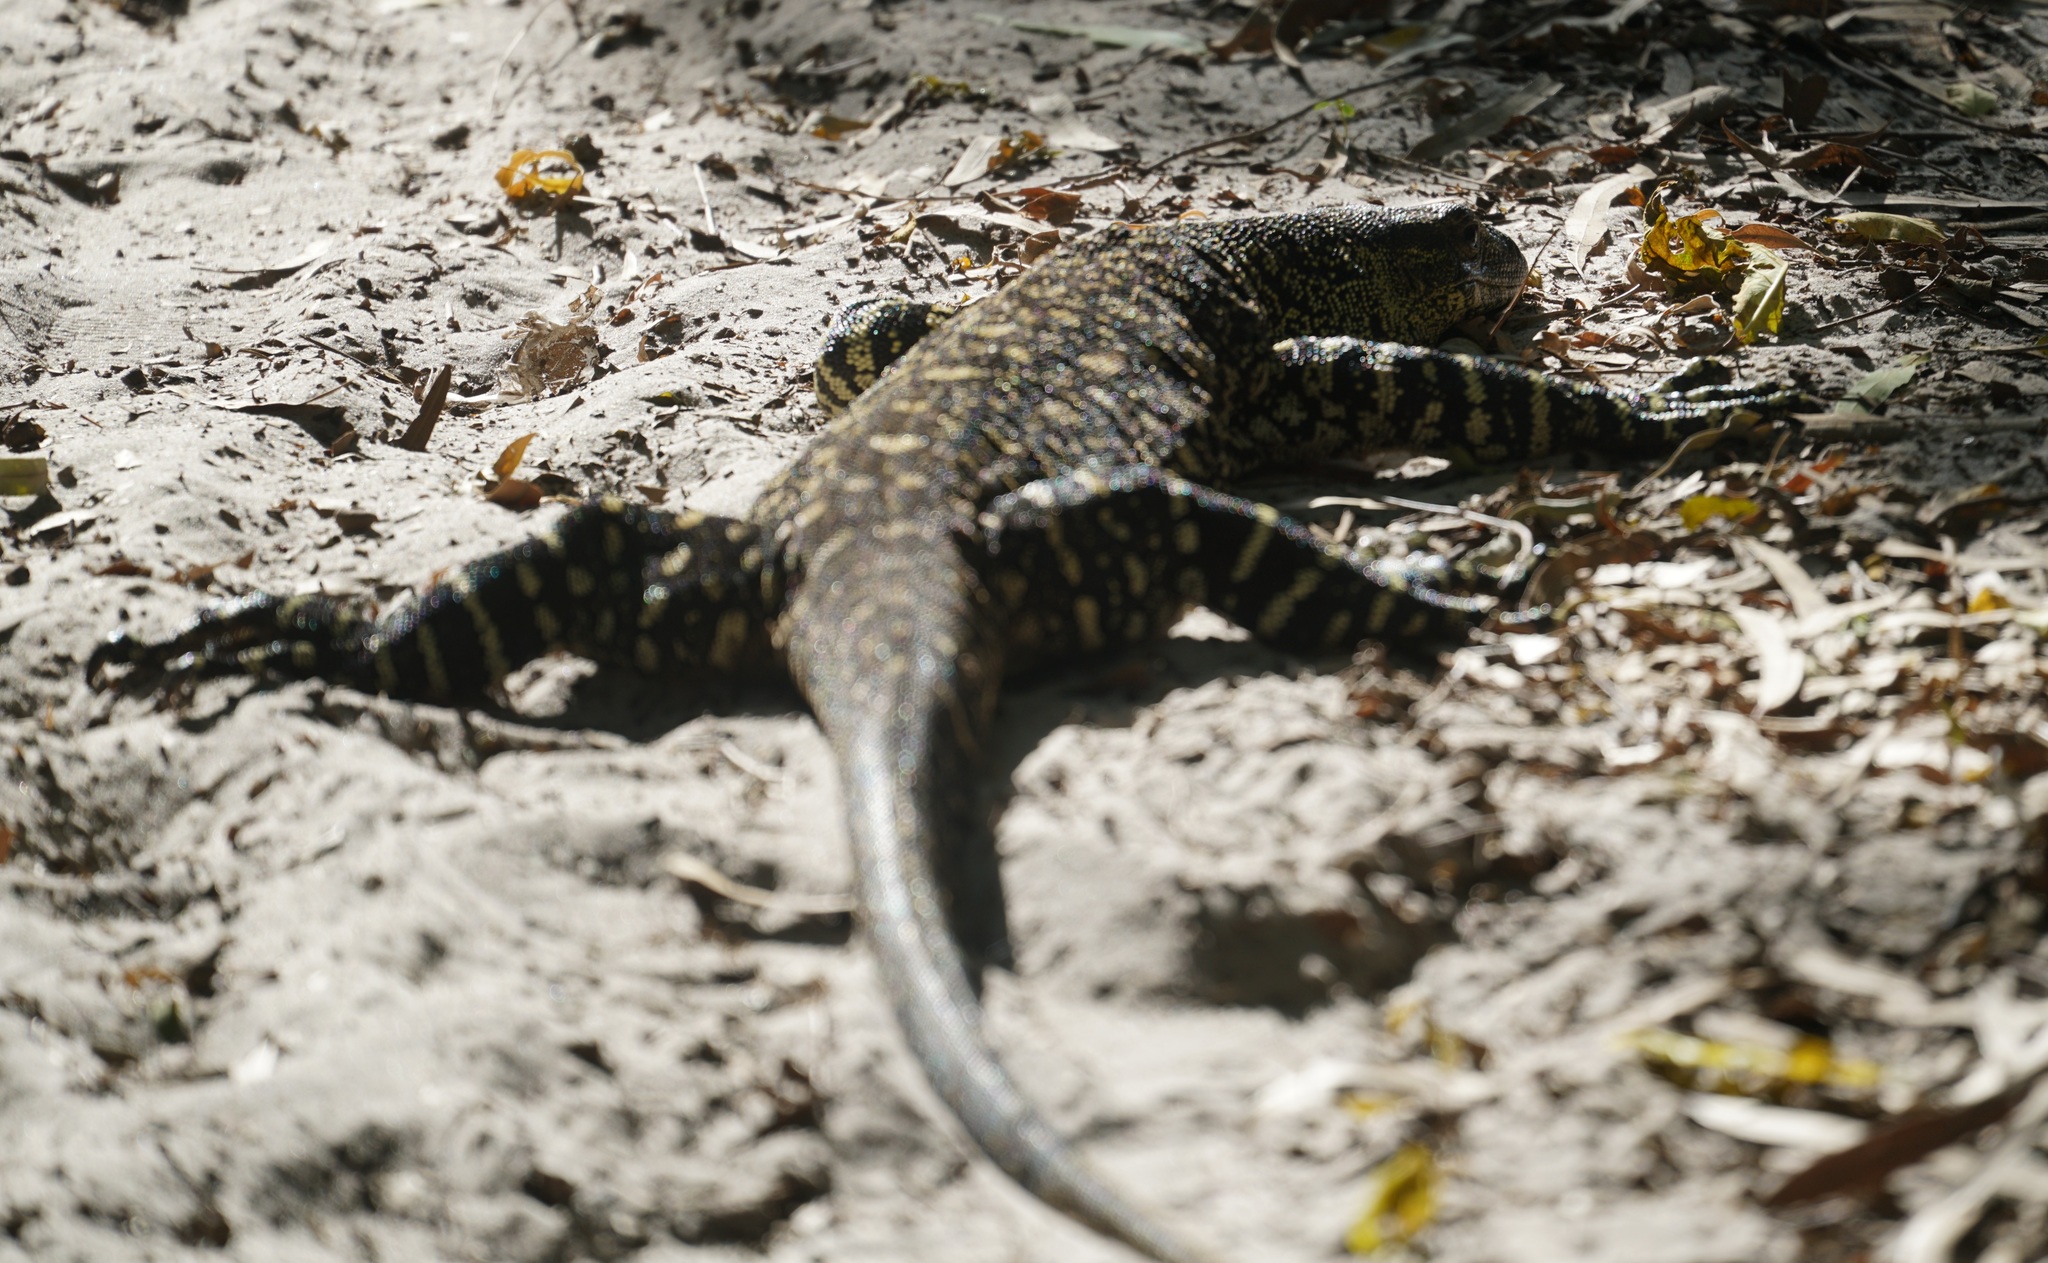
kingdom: Animalia
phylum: Chordata
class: Squamata
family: Varanidae
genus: Varanus
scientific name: Varanus varius
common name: Lace monitor
